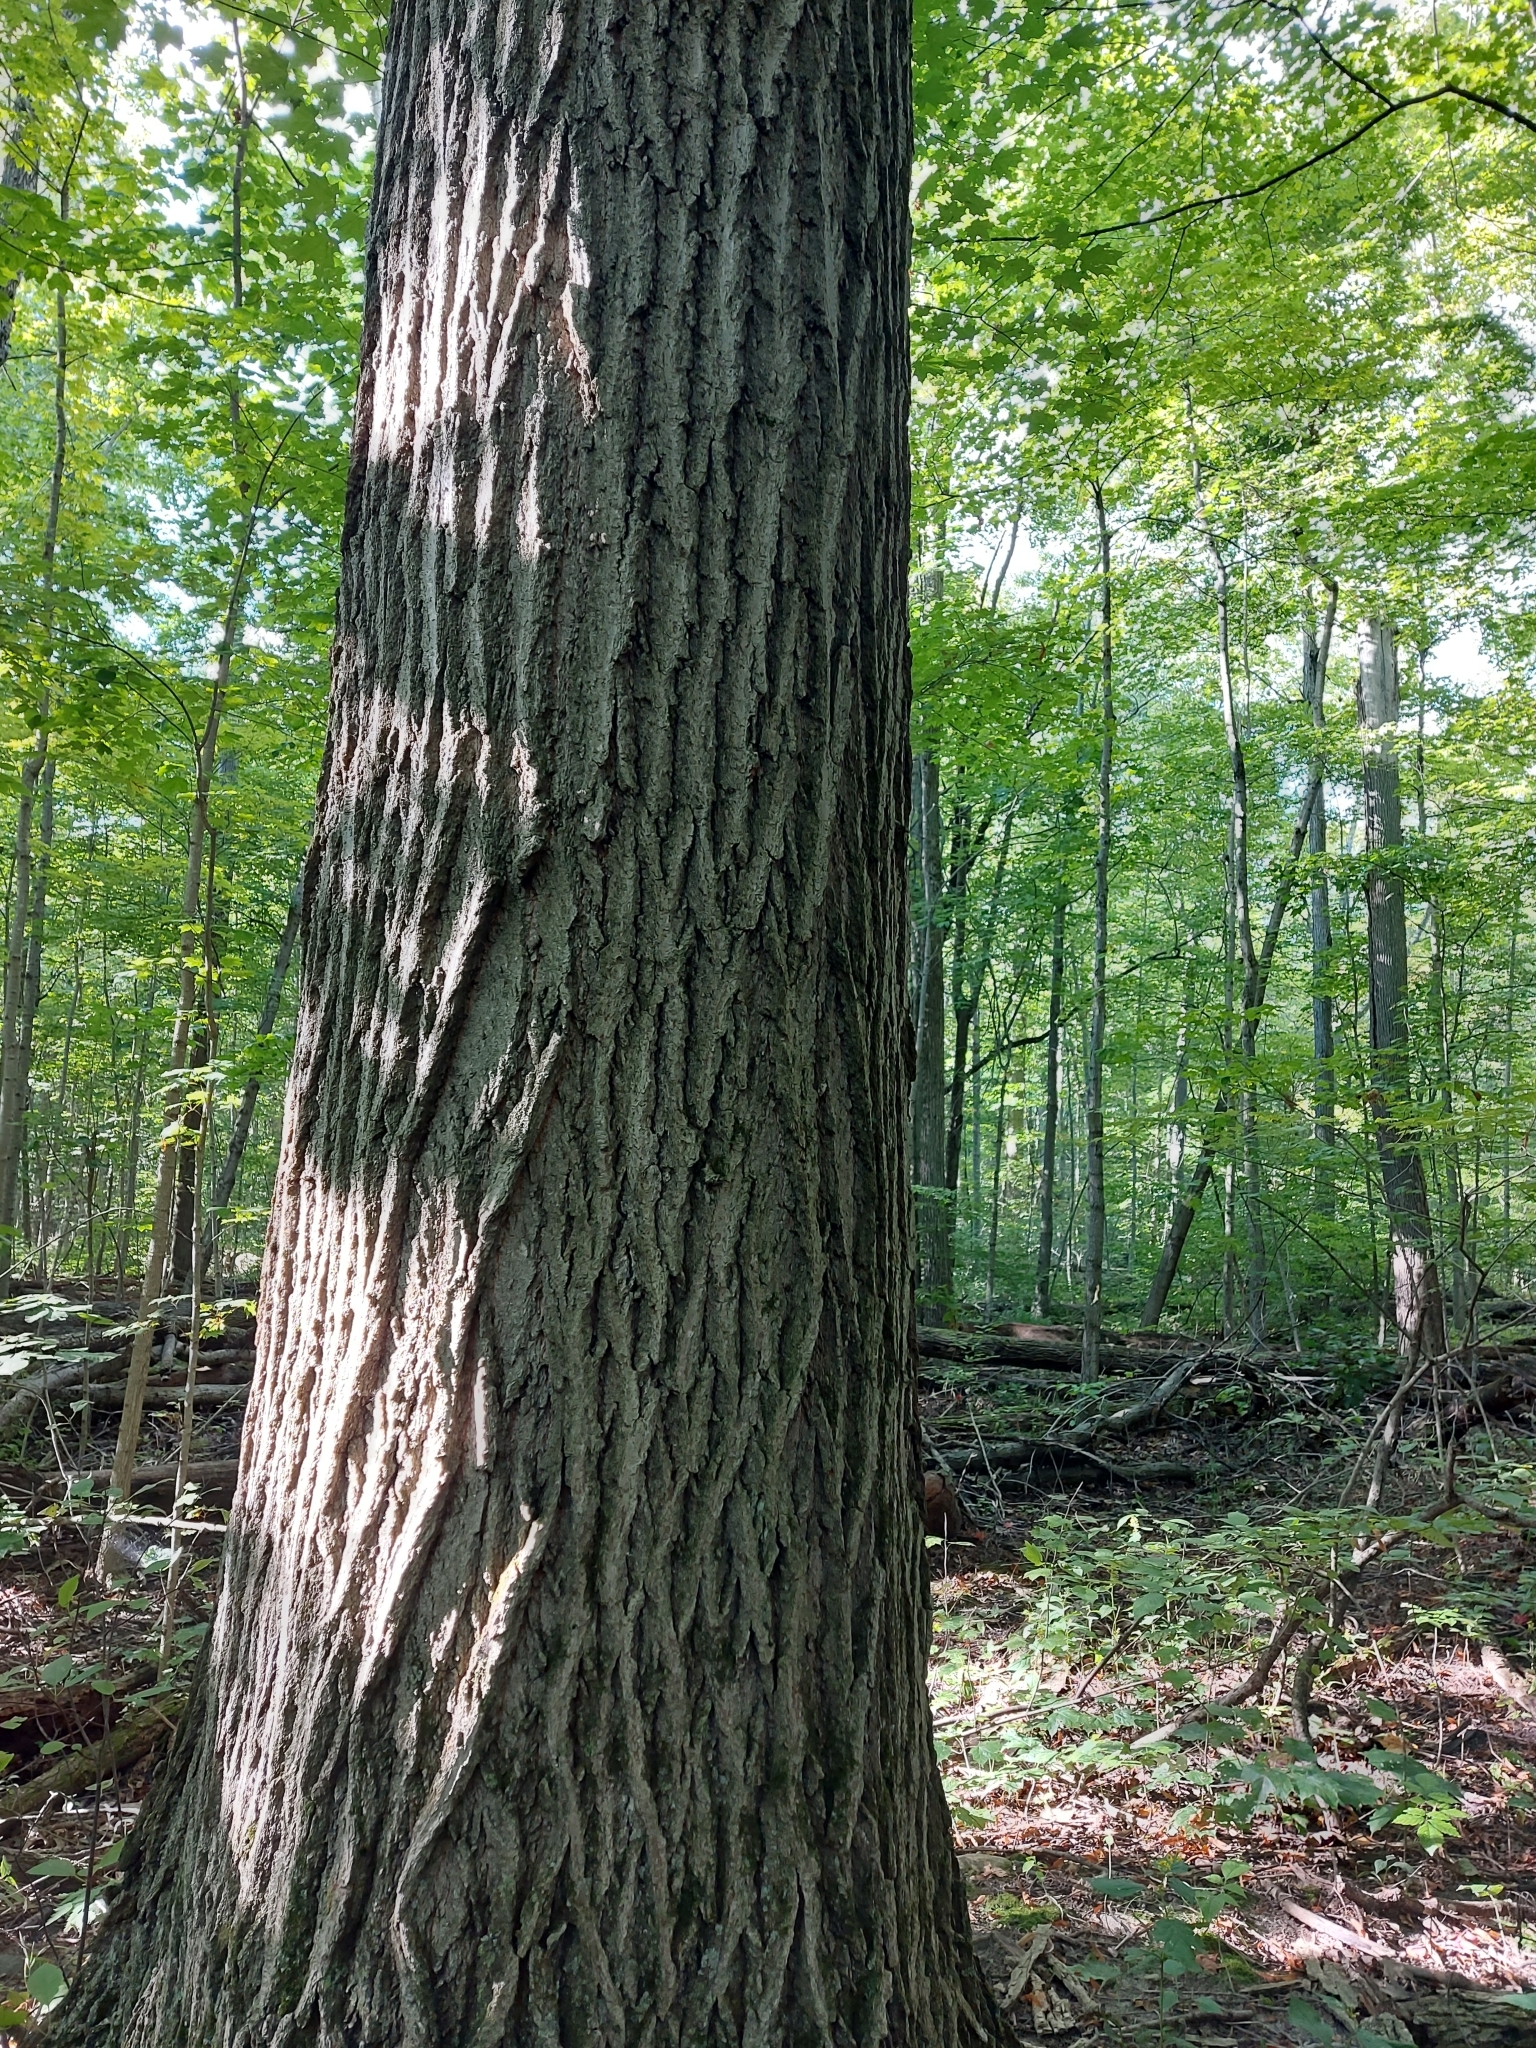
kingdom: Plantae
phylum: Tracheophyta
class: Magnoliopsida
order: Fagales
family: Fagaceae
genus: Quercus
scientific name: Quercus rubra
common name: Red oak
